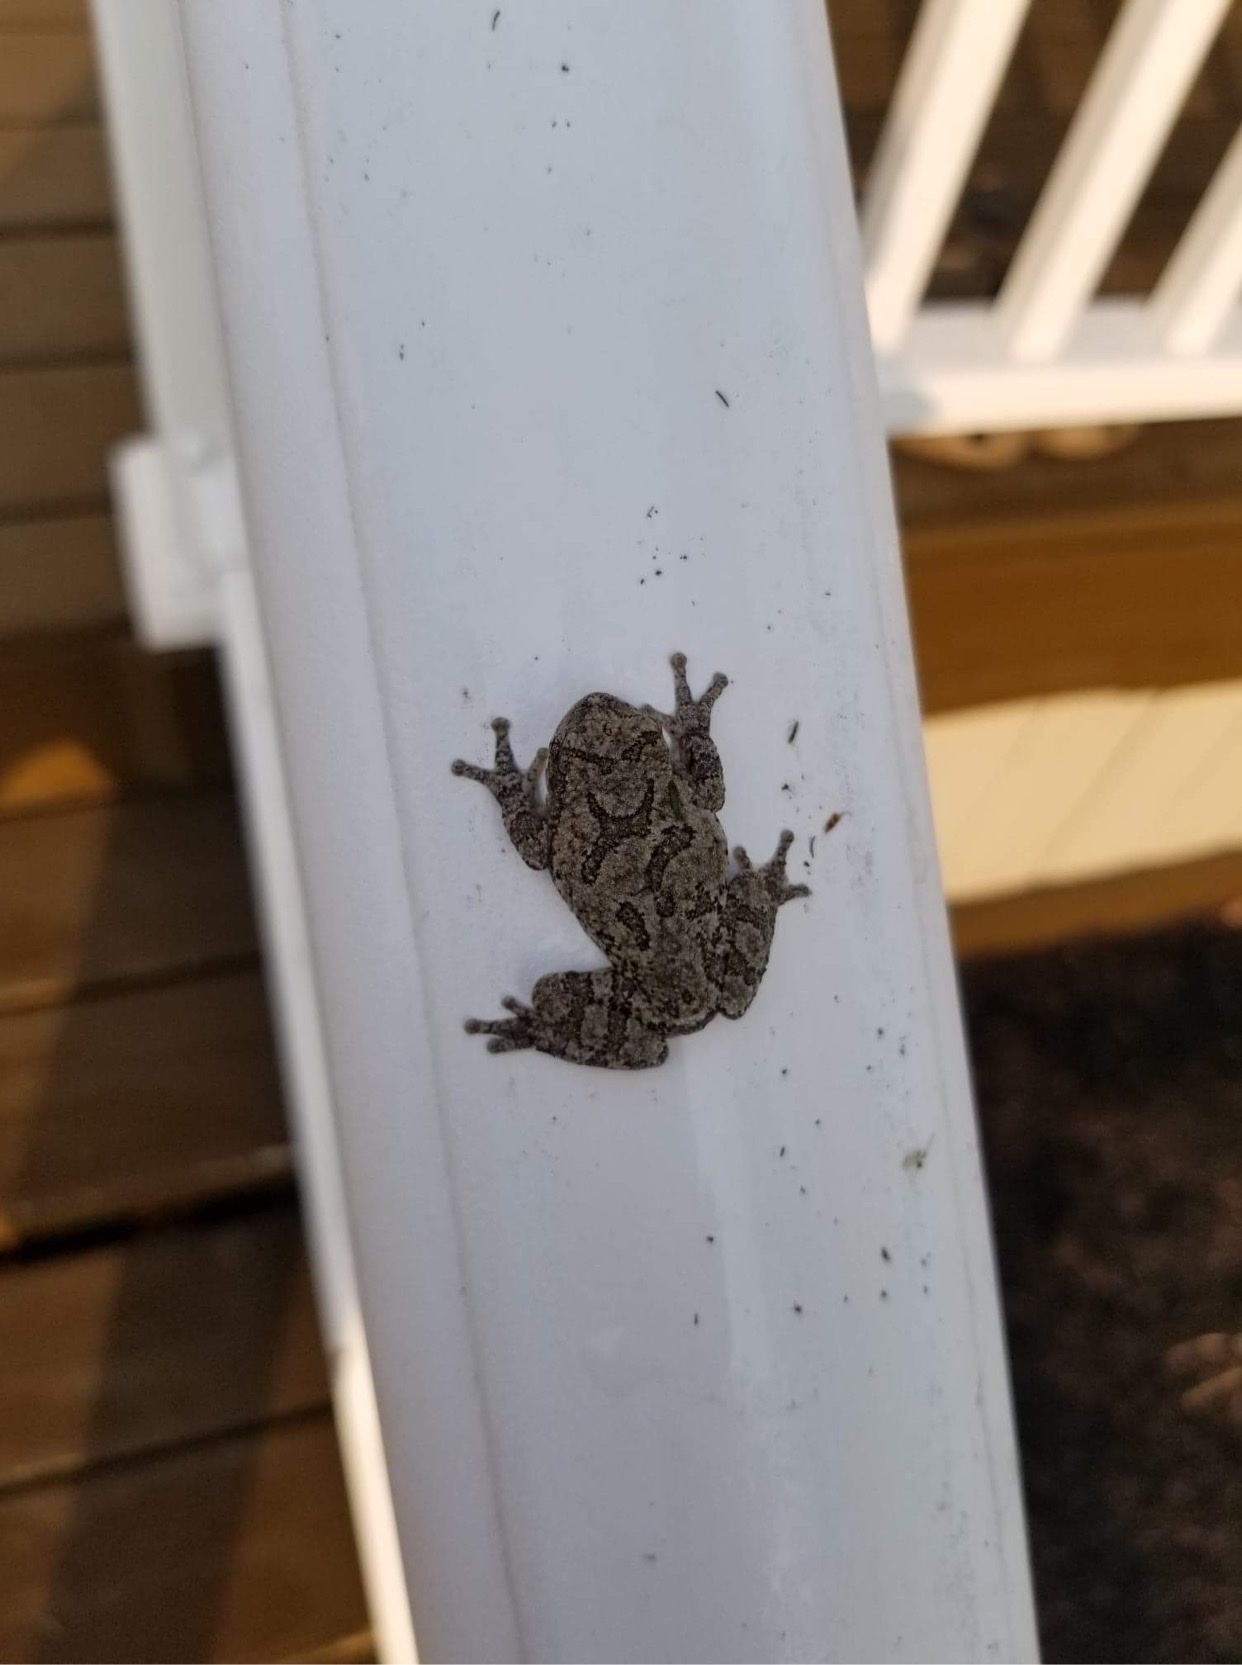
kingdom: Animalia
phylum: Chordata
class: Amphibia
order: Anura
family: Hylidae
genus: Dryophytes
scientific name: Dryophytes versicolor
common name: Gray treefrog
